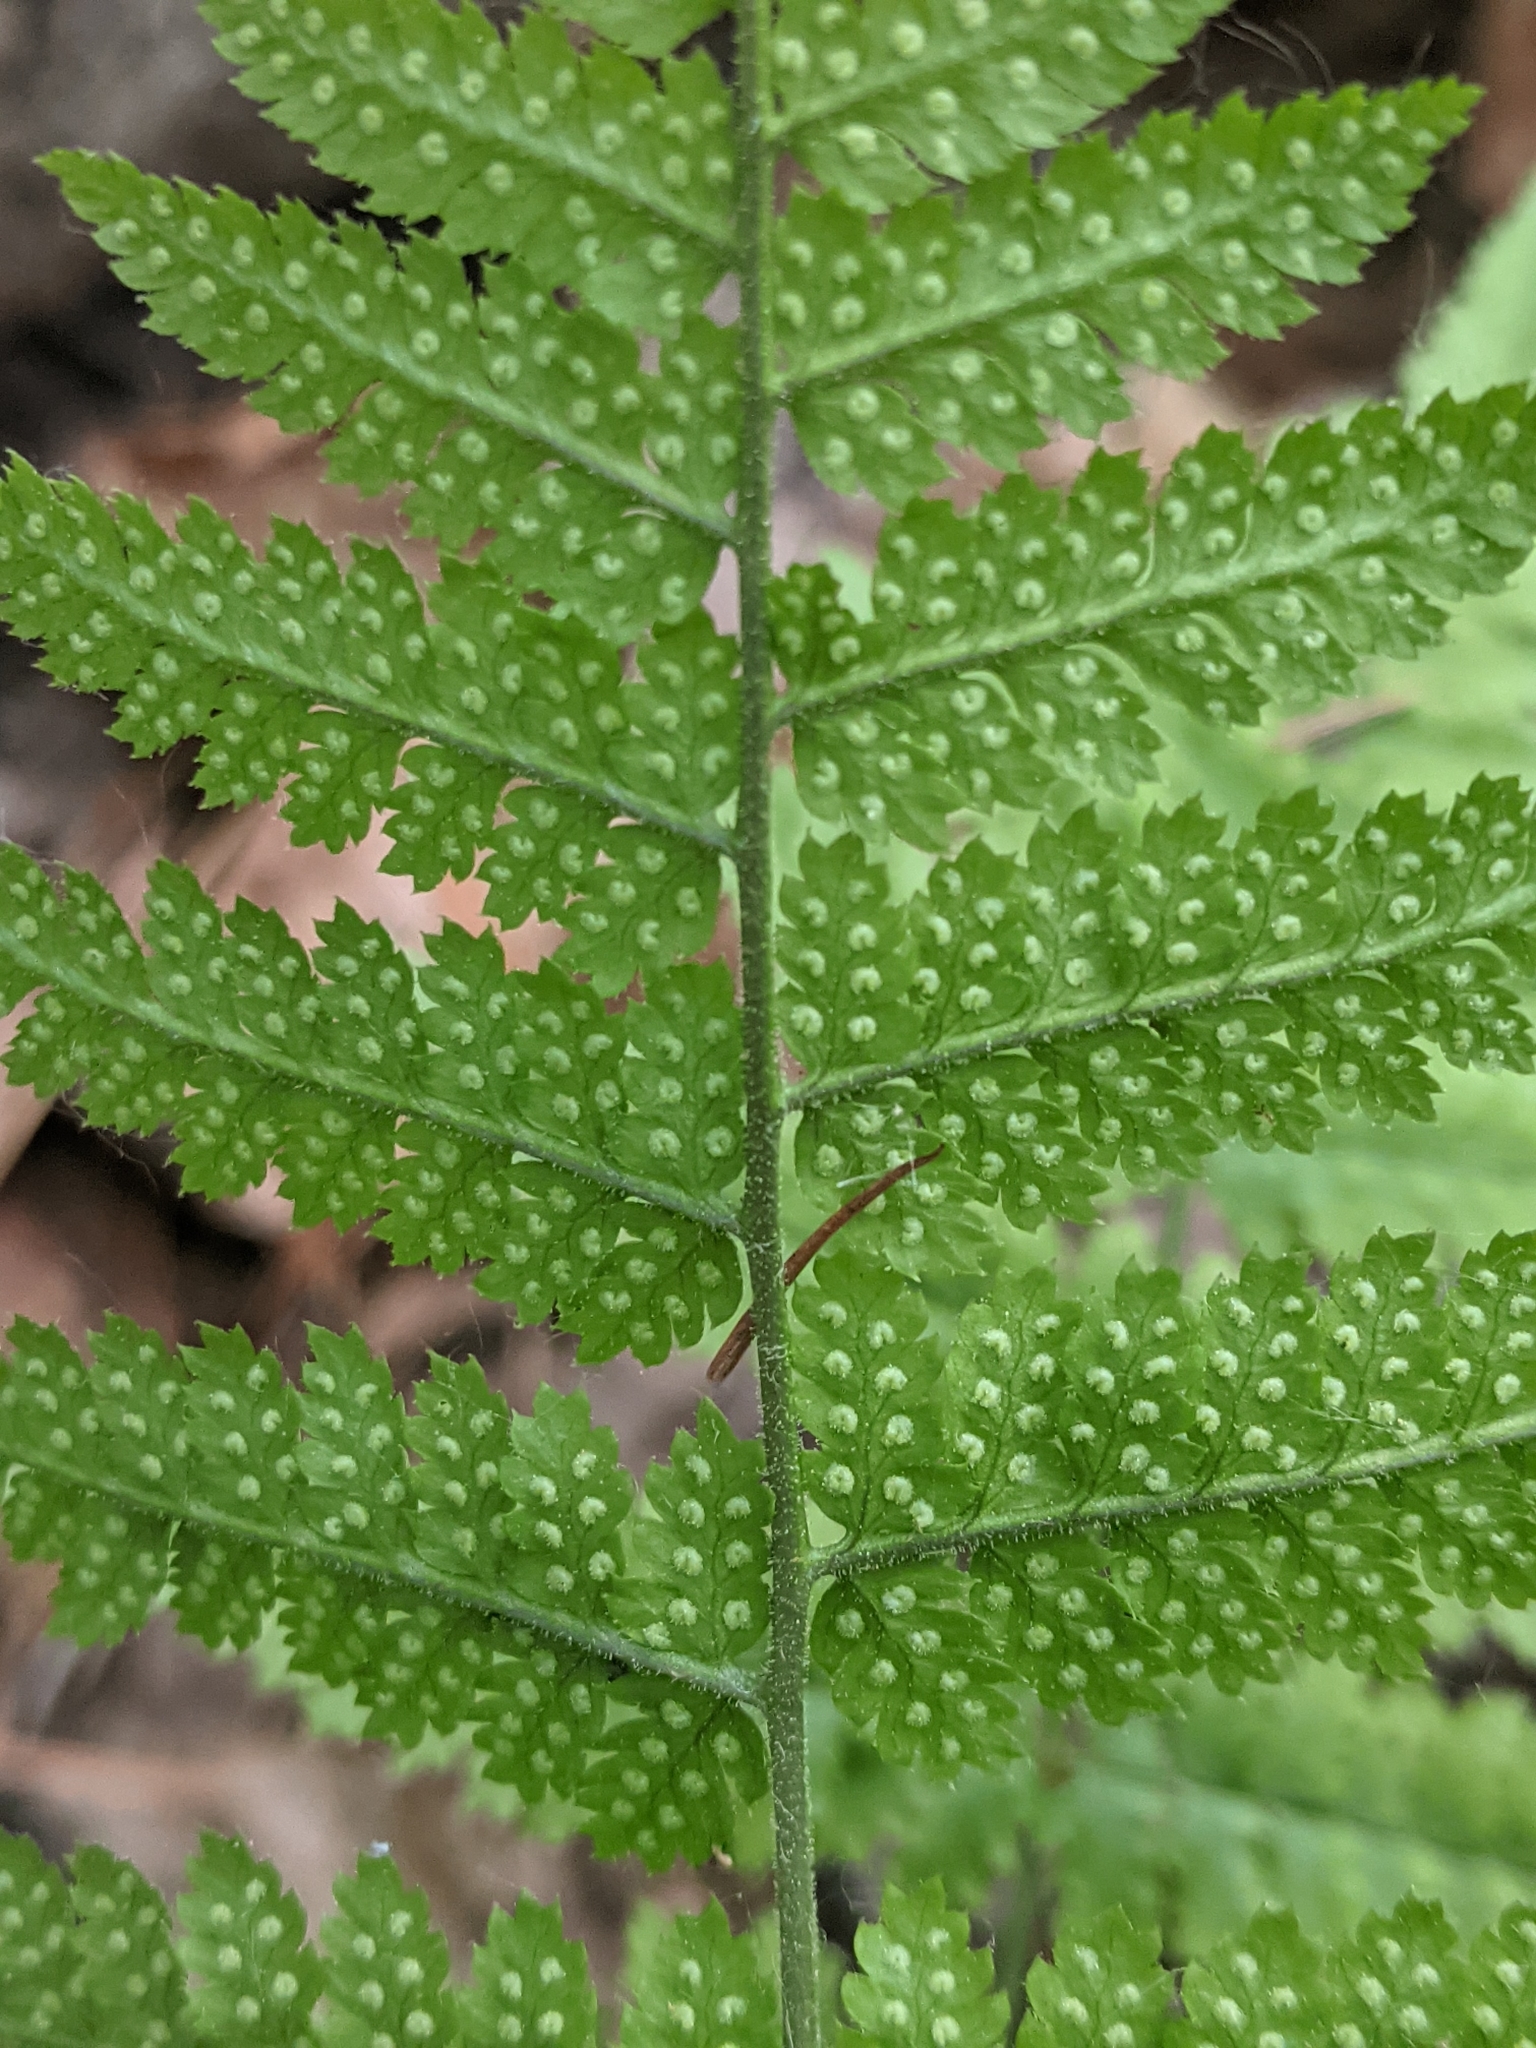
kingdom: Plantae
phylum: Tracheophyta
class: Polypodiopsida
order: Polypodiales
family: Dryopteridaceae
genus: Dryopteris
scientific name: Dryopteris intermedia
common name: Evergreen wood fern
